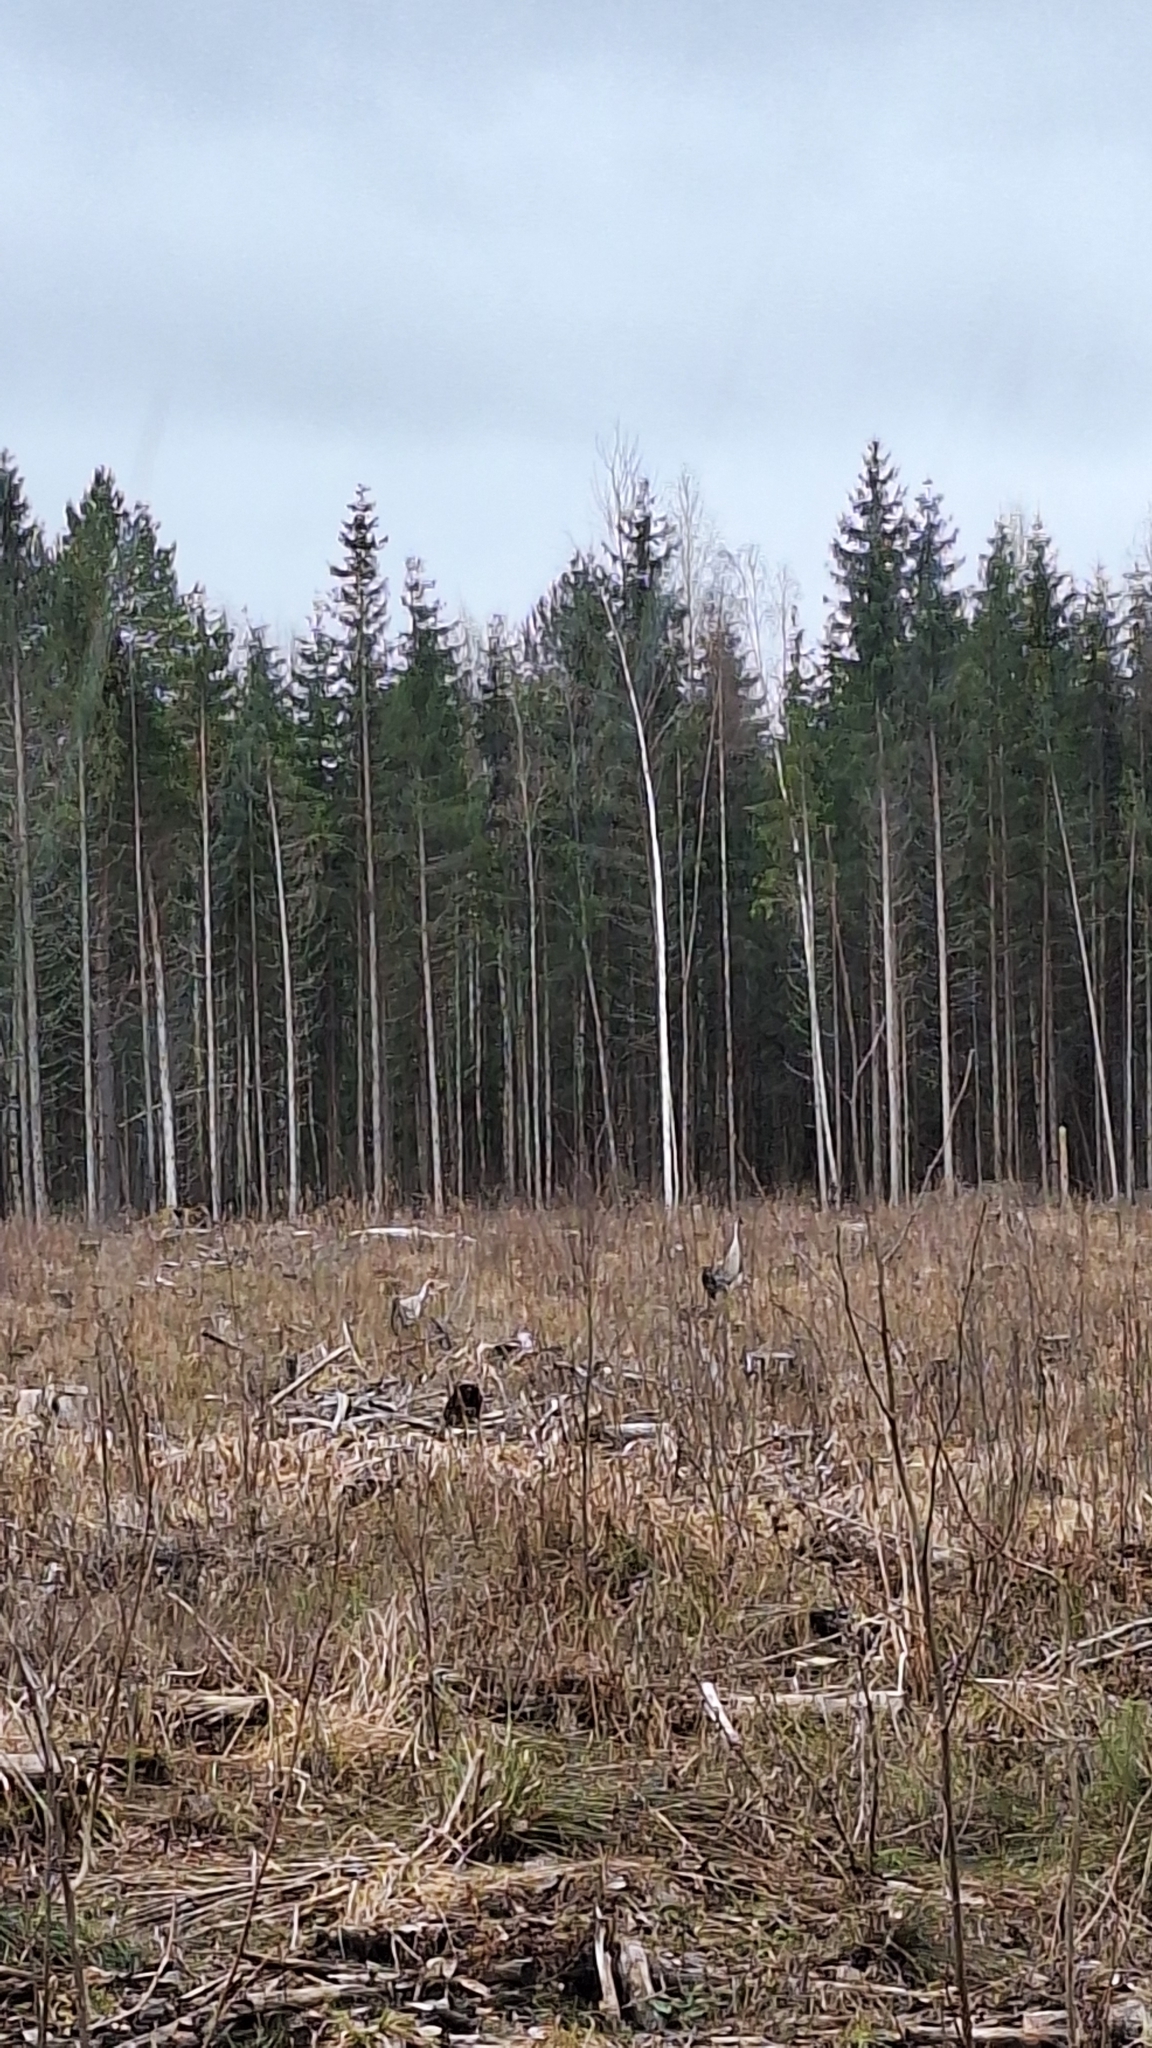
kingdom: Animalia
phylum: Chordata
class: Aves
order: Gruiformes
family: Gruidae
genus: Grus
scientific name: Grus grus
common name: Common crane
